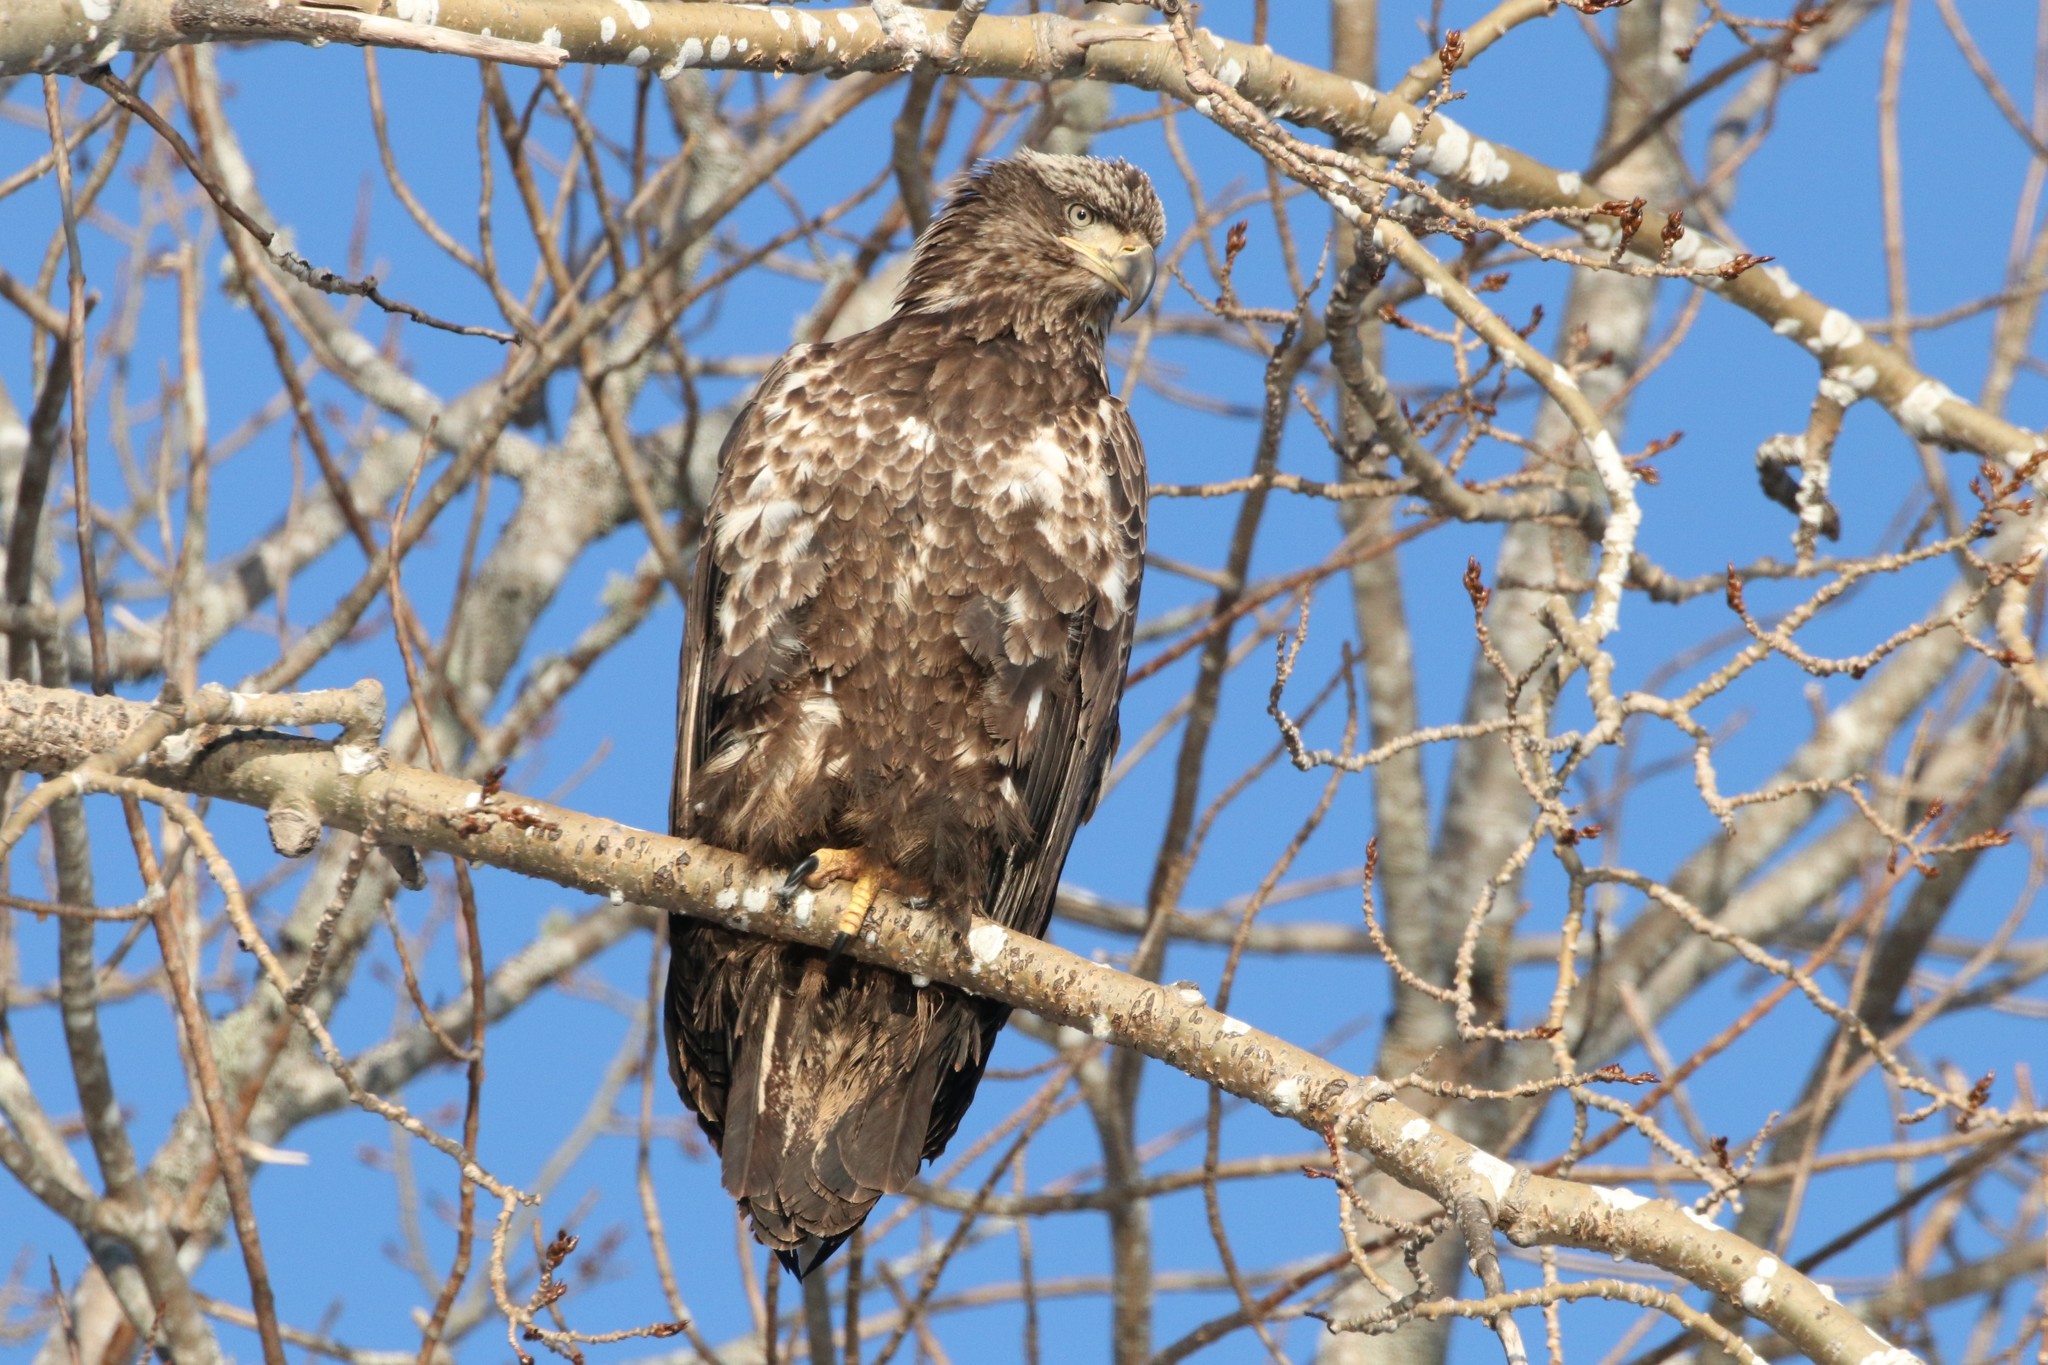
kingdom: Animalia
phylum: Chordata
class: Aves
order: Accipitriformes
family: Accipitridae
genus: Haliaeetus
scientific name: Haliaeetus leucocephalus
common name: Bald eagle
